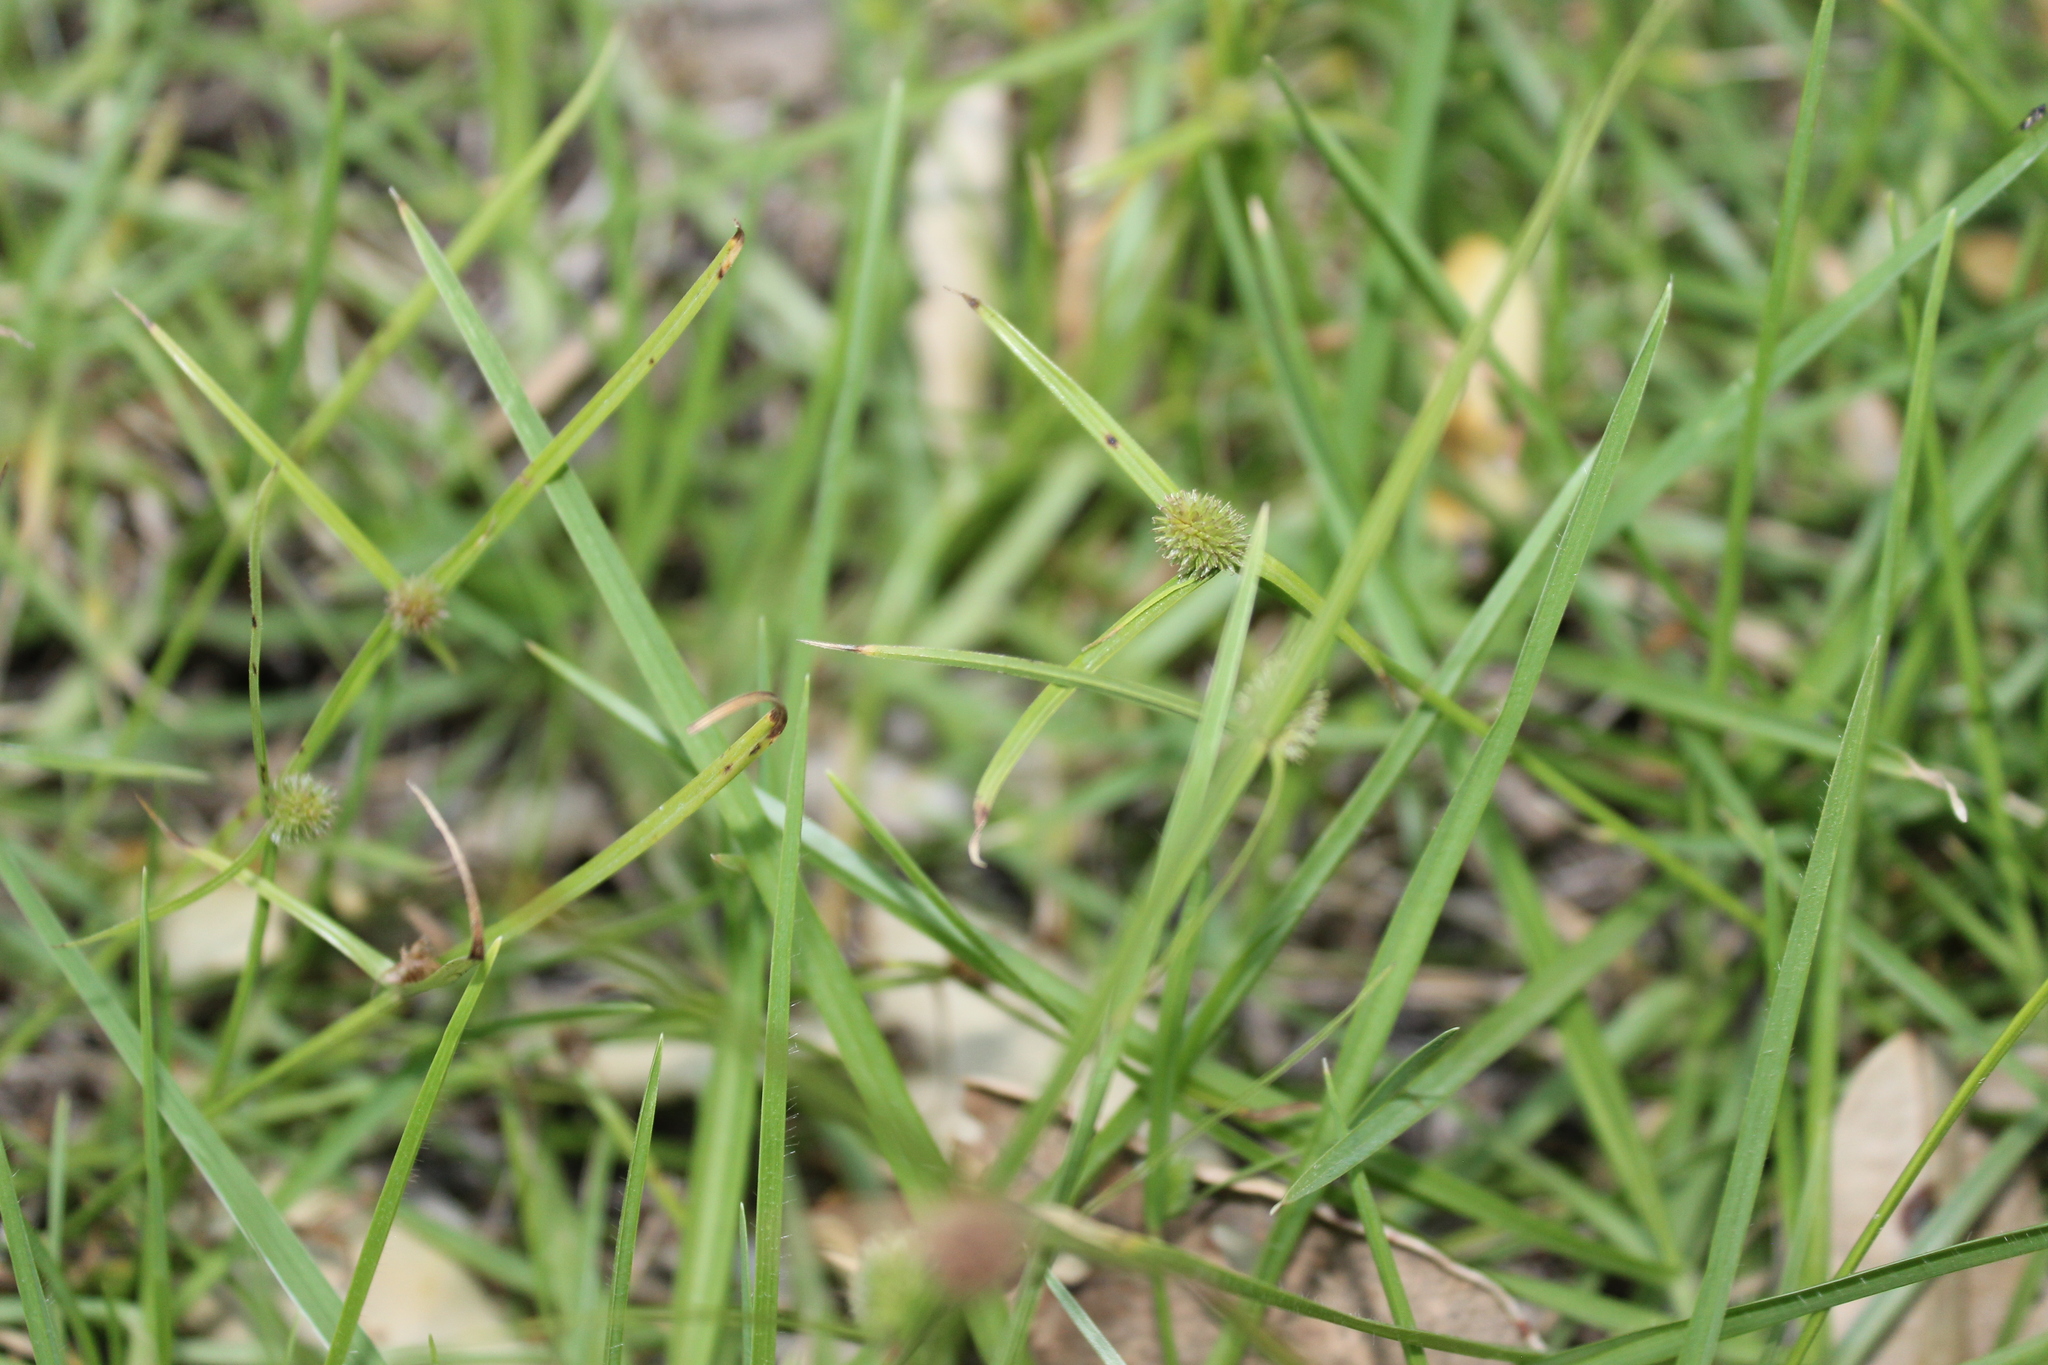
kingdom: Plantae
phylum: Tracheophyta
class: Liliopsida
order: Poales
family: Cyperaceae
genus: Cyperus
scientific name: Cyperus brevifolius
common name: Globe kyllinga
